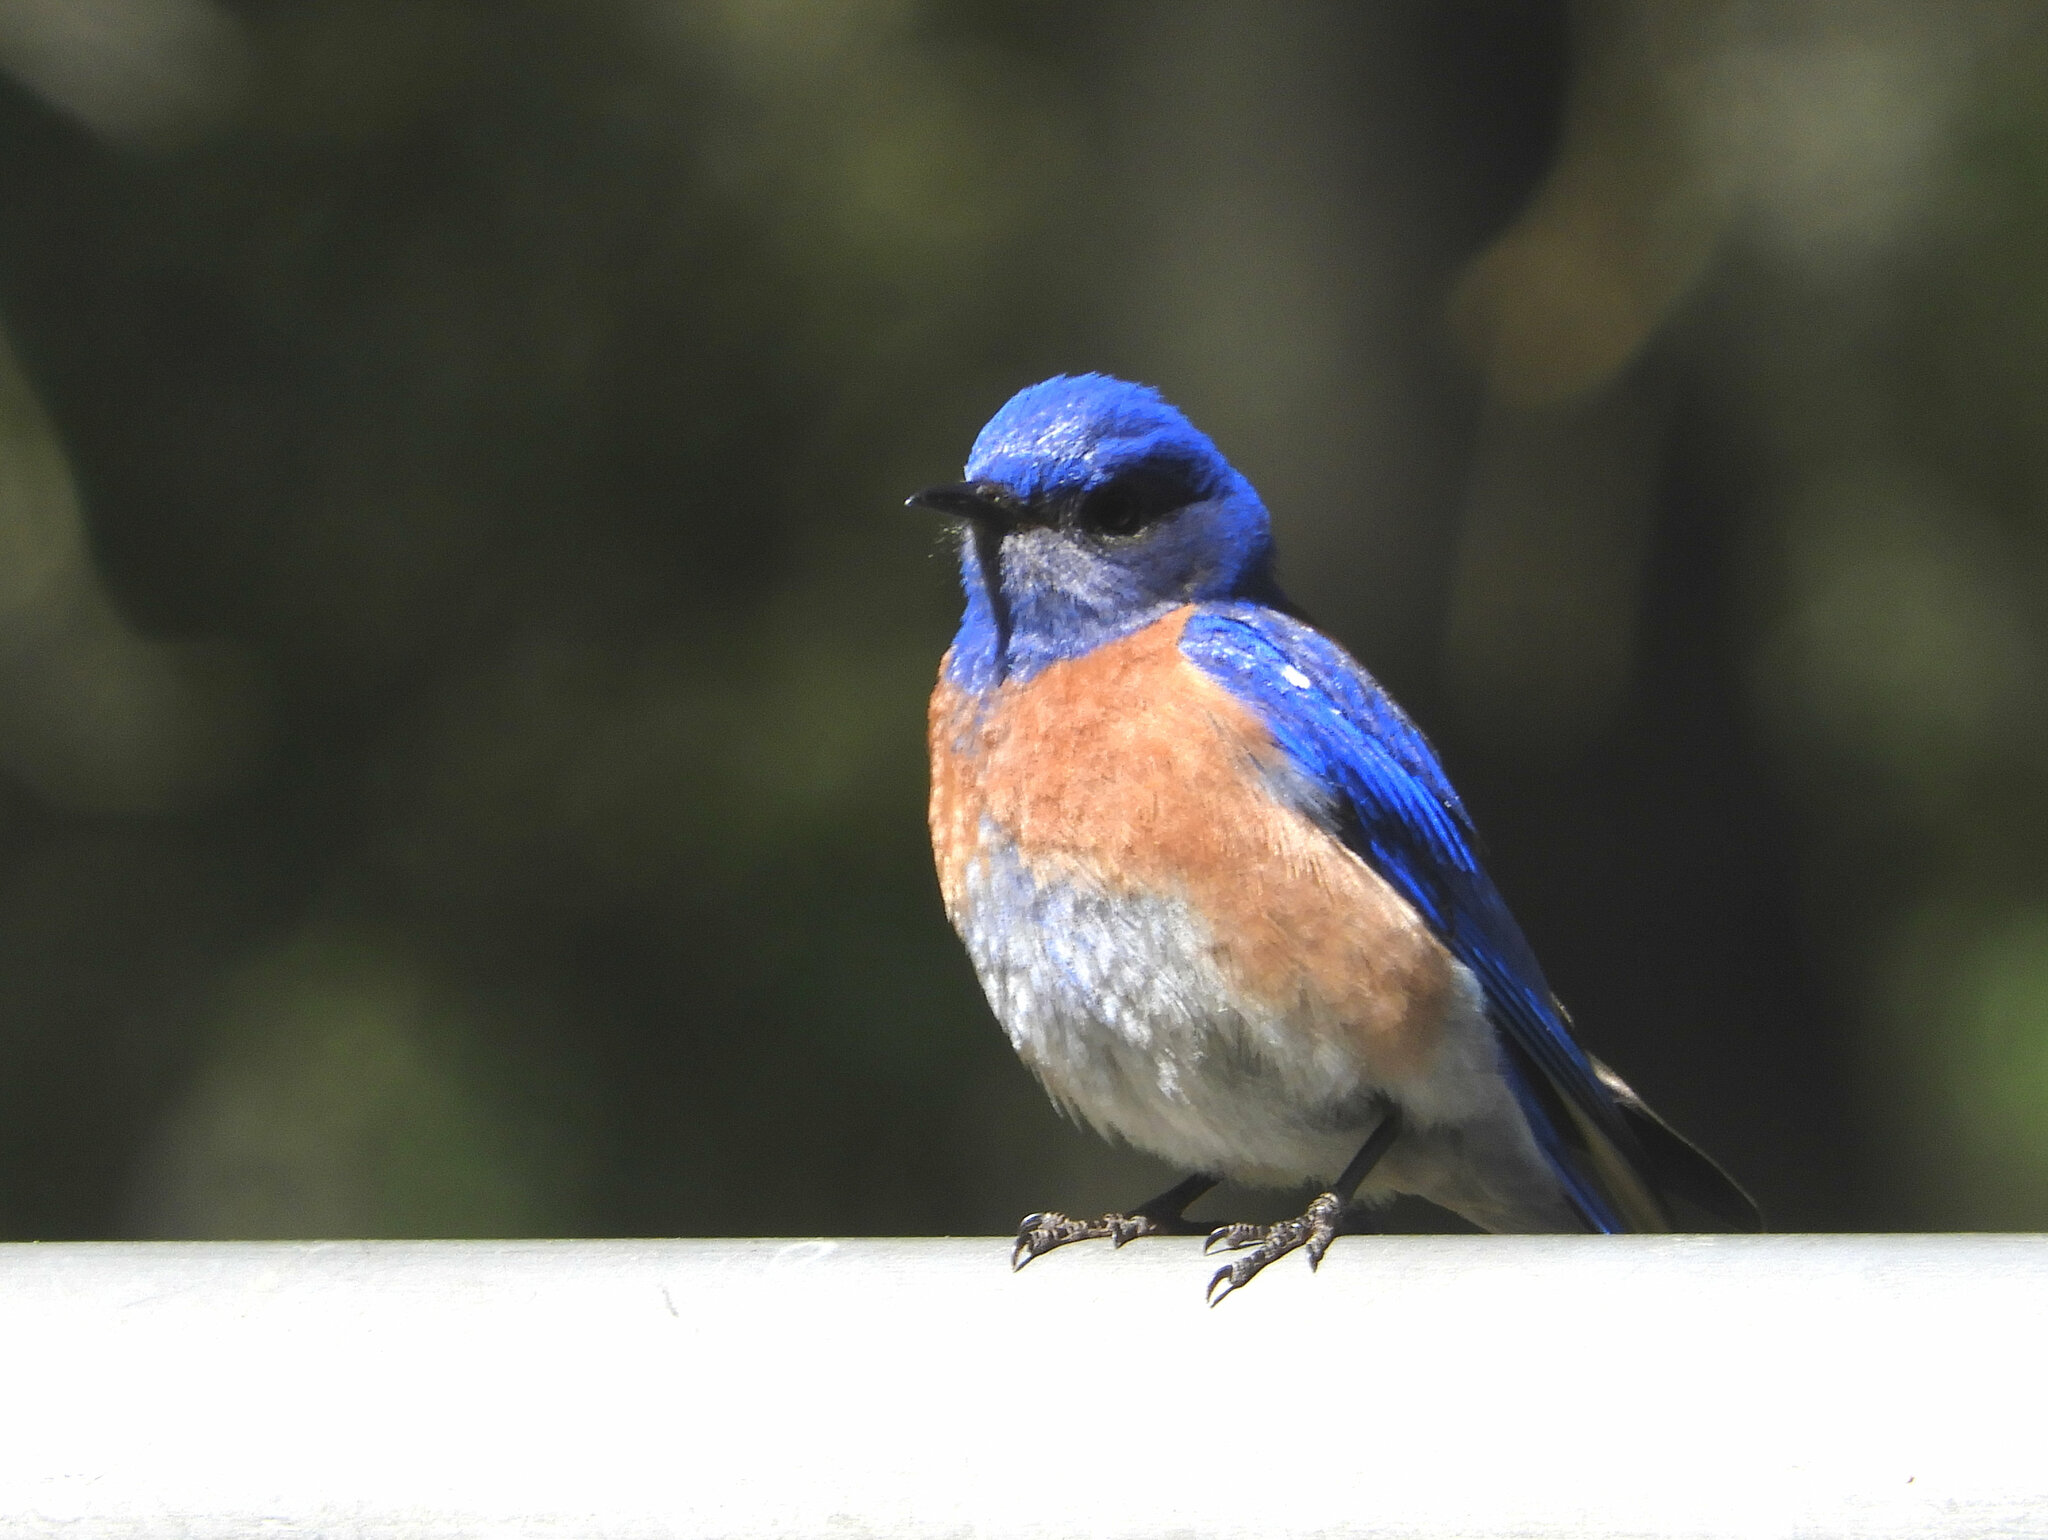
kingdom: Animalia
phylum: Chordata
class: Aves
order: Passeriformes
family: Turdidae
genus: Sialia
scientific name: Sialia mexicana
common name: Western bluebird
